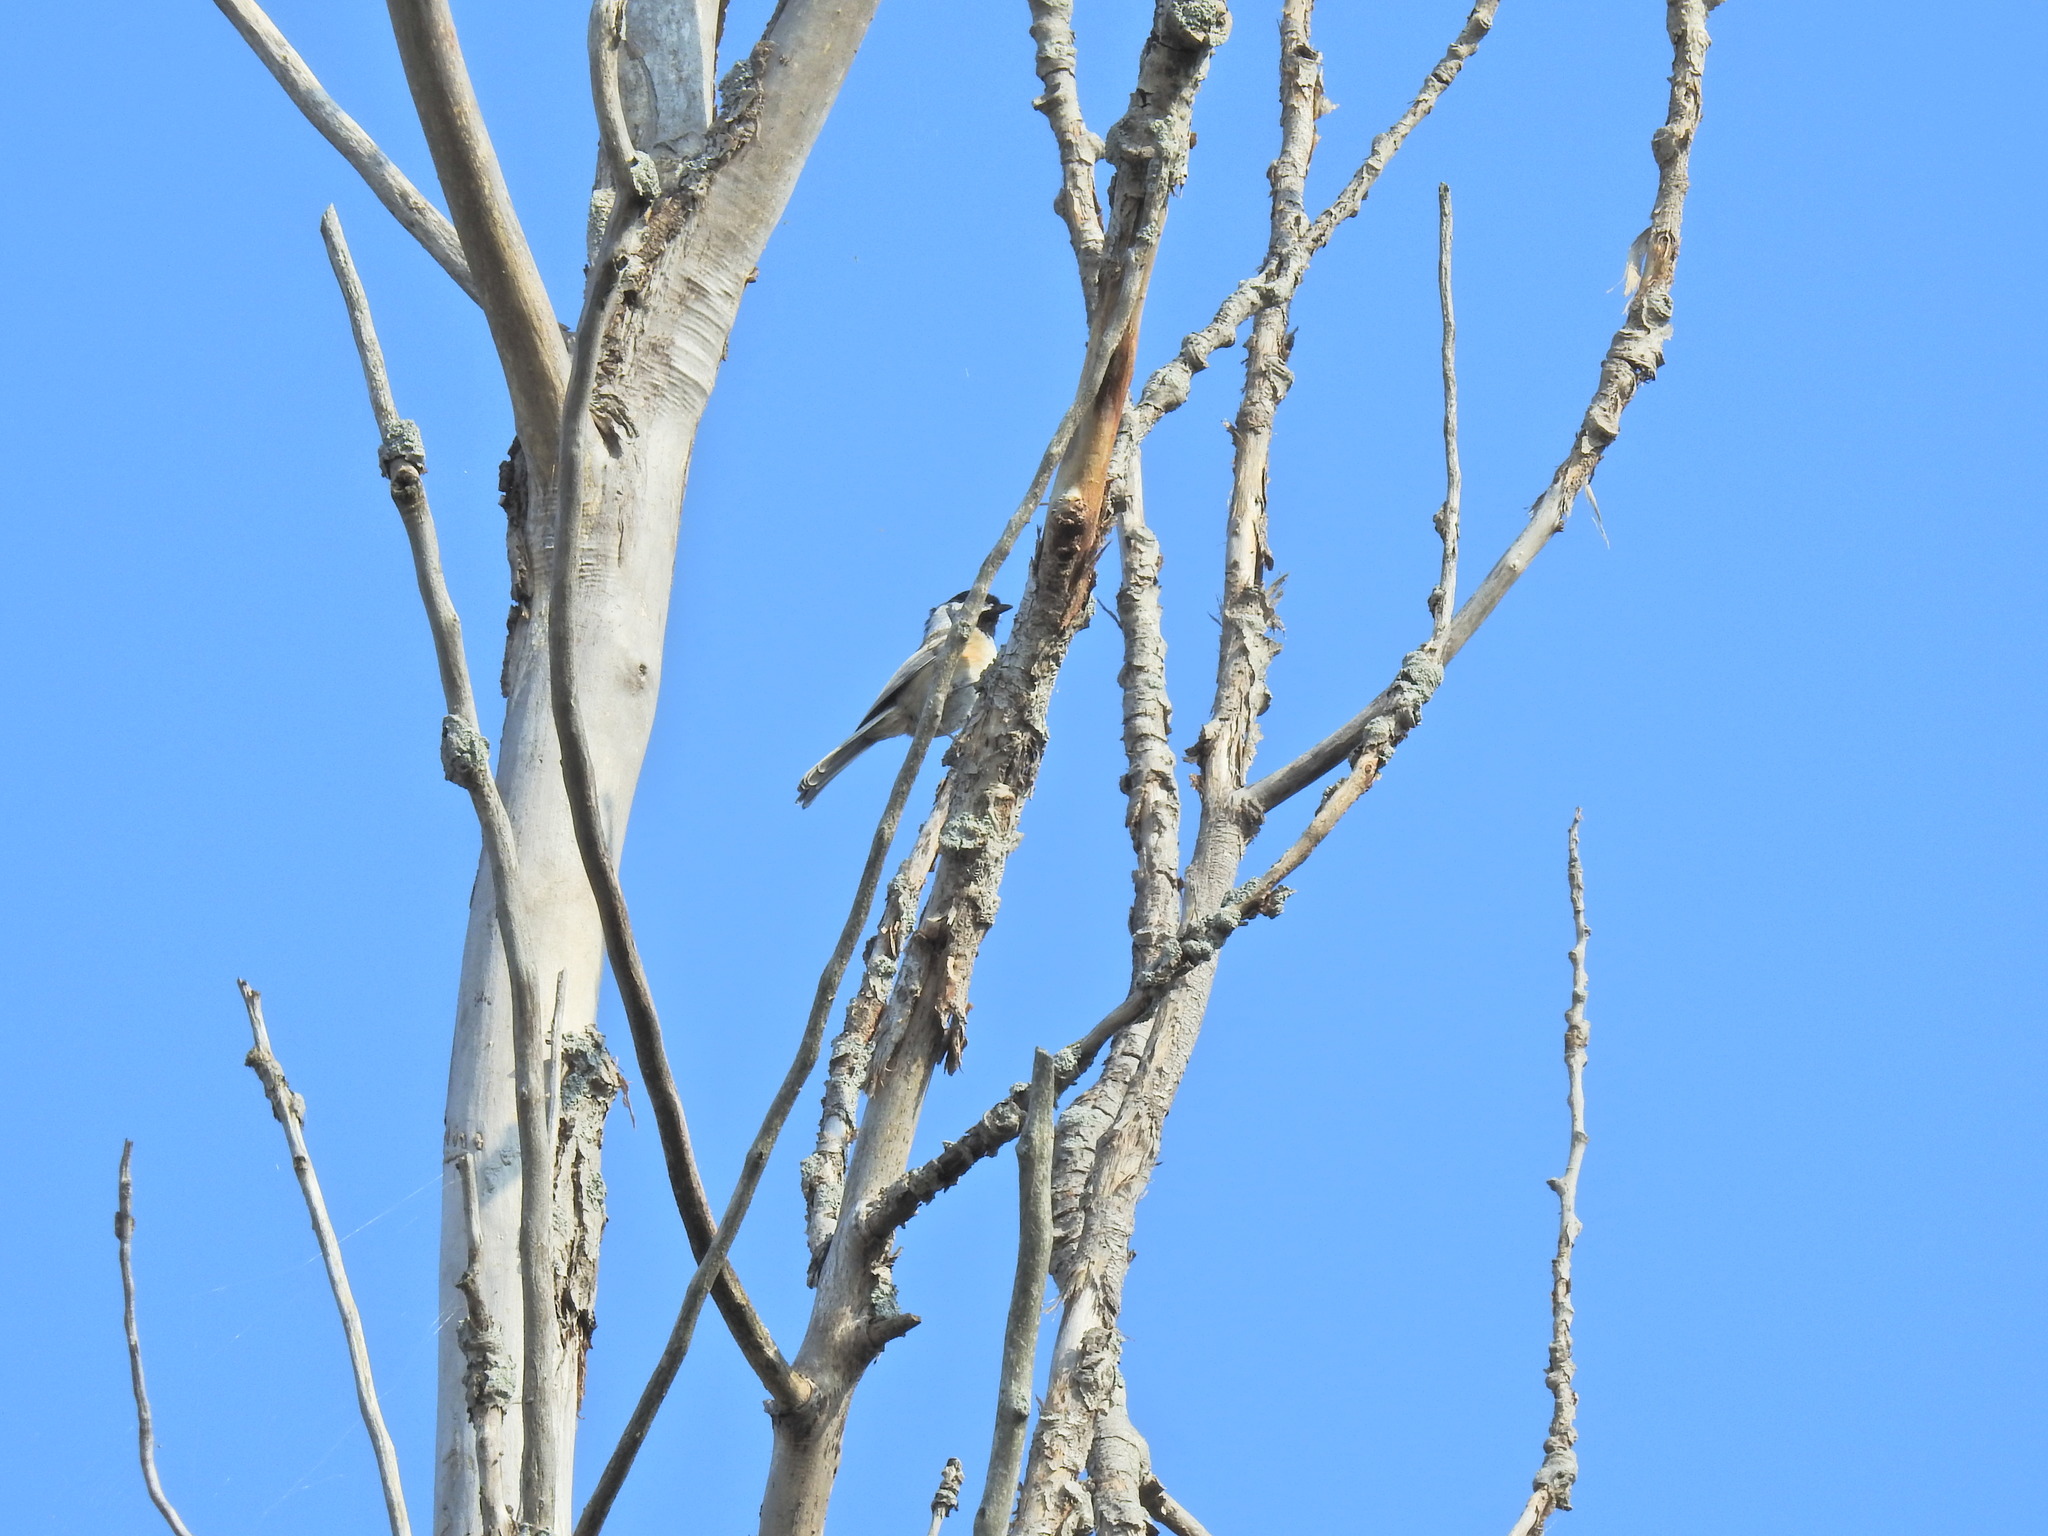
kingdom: Animalia
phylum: Chordata
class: Aves
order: Passeriformes
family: Paridae
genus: Poecile
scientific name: Poecile atricapillus
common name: Black-capped chickadee
